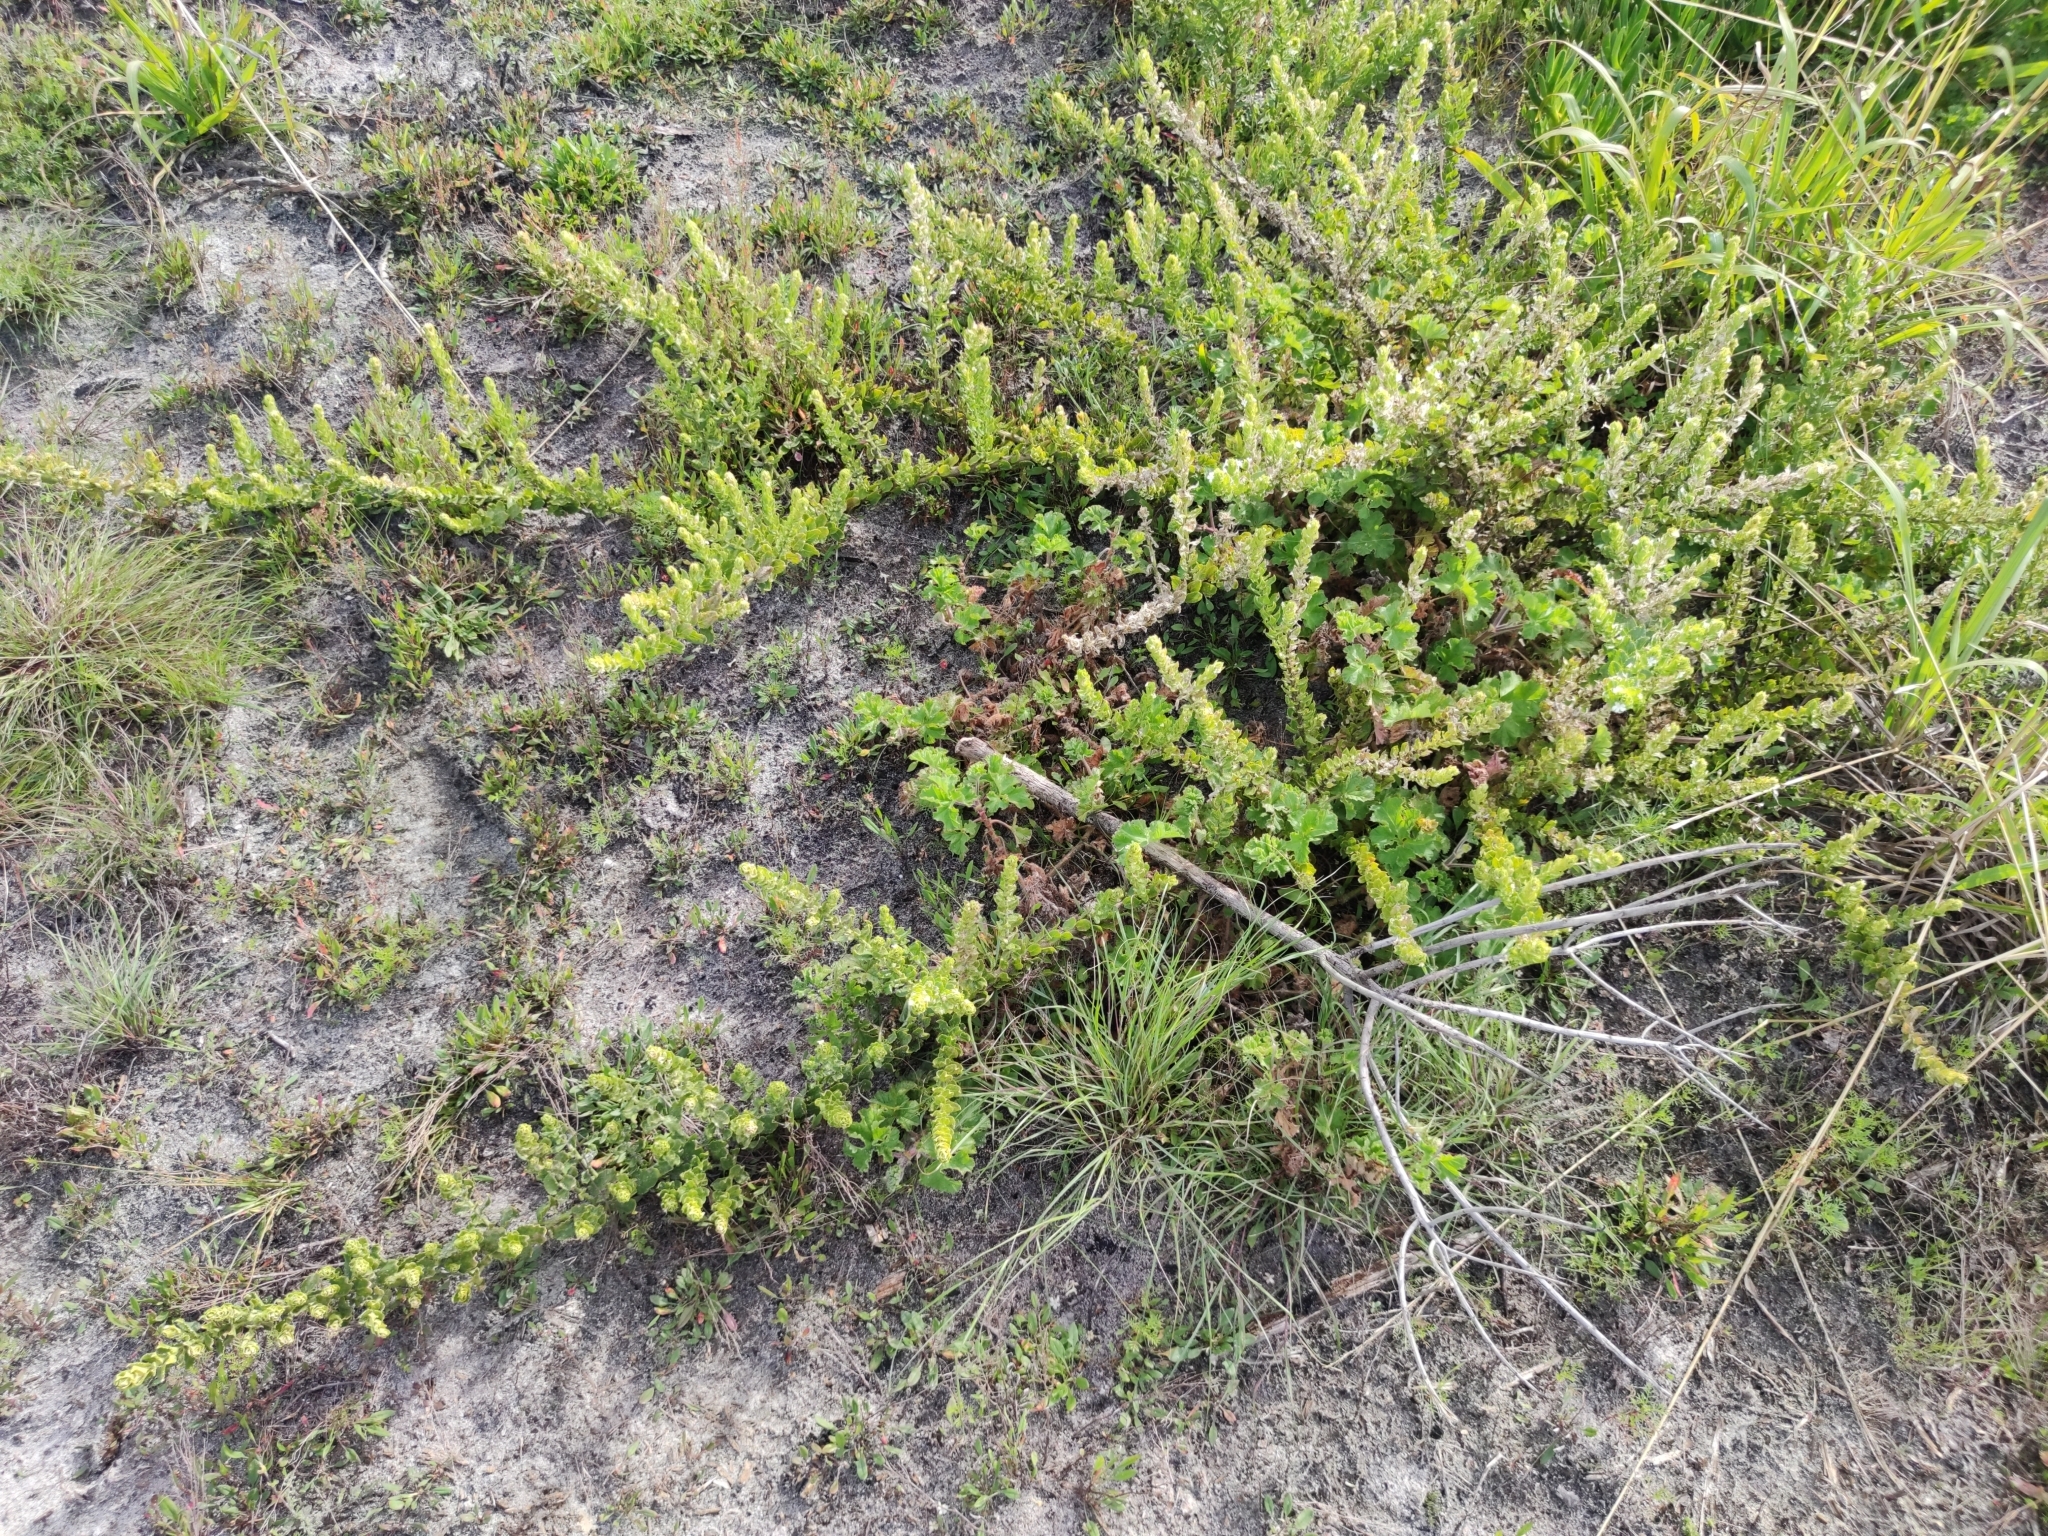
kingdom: Plantae
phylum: Tracheophyta
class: Magnoliopsida
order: Lamiales
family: Scrophulariaceae
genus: Oftia
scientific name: Oftia africana
